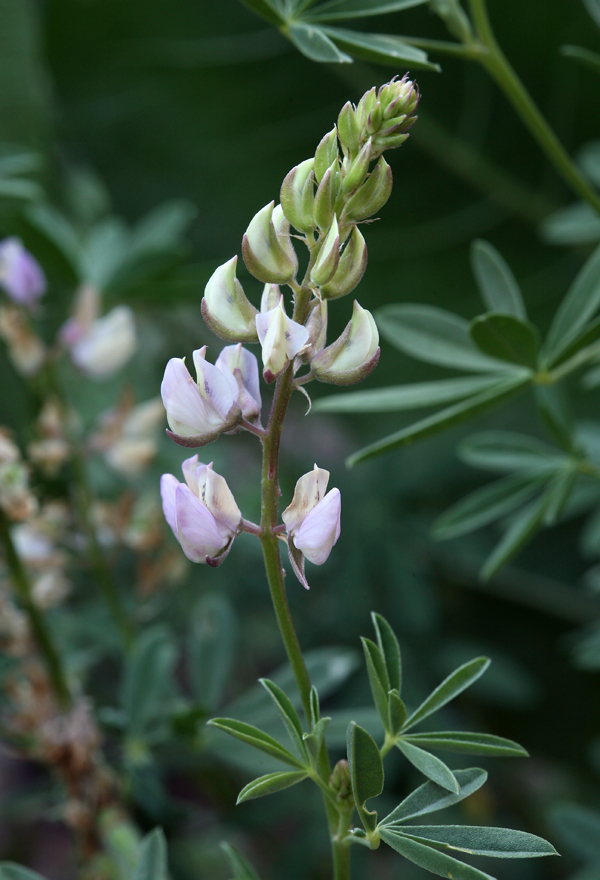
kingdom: Plantae
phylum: Tracheophyta
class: Magnoliopsida
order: Fabales
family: Fabaceae
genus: Lupinus
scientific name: Lupinus andersonii
